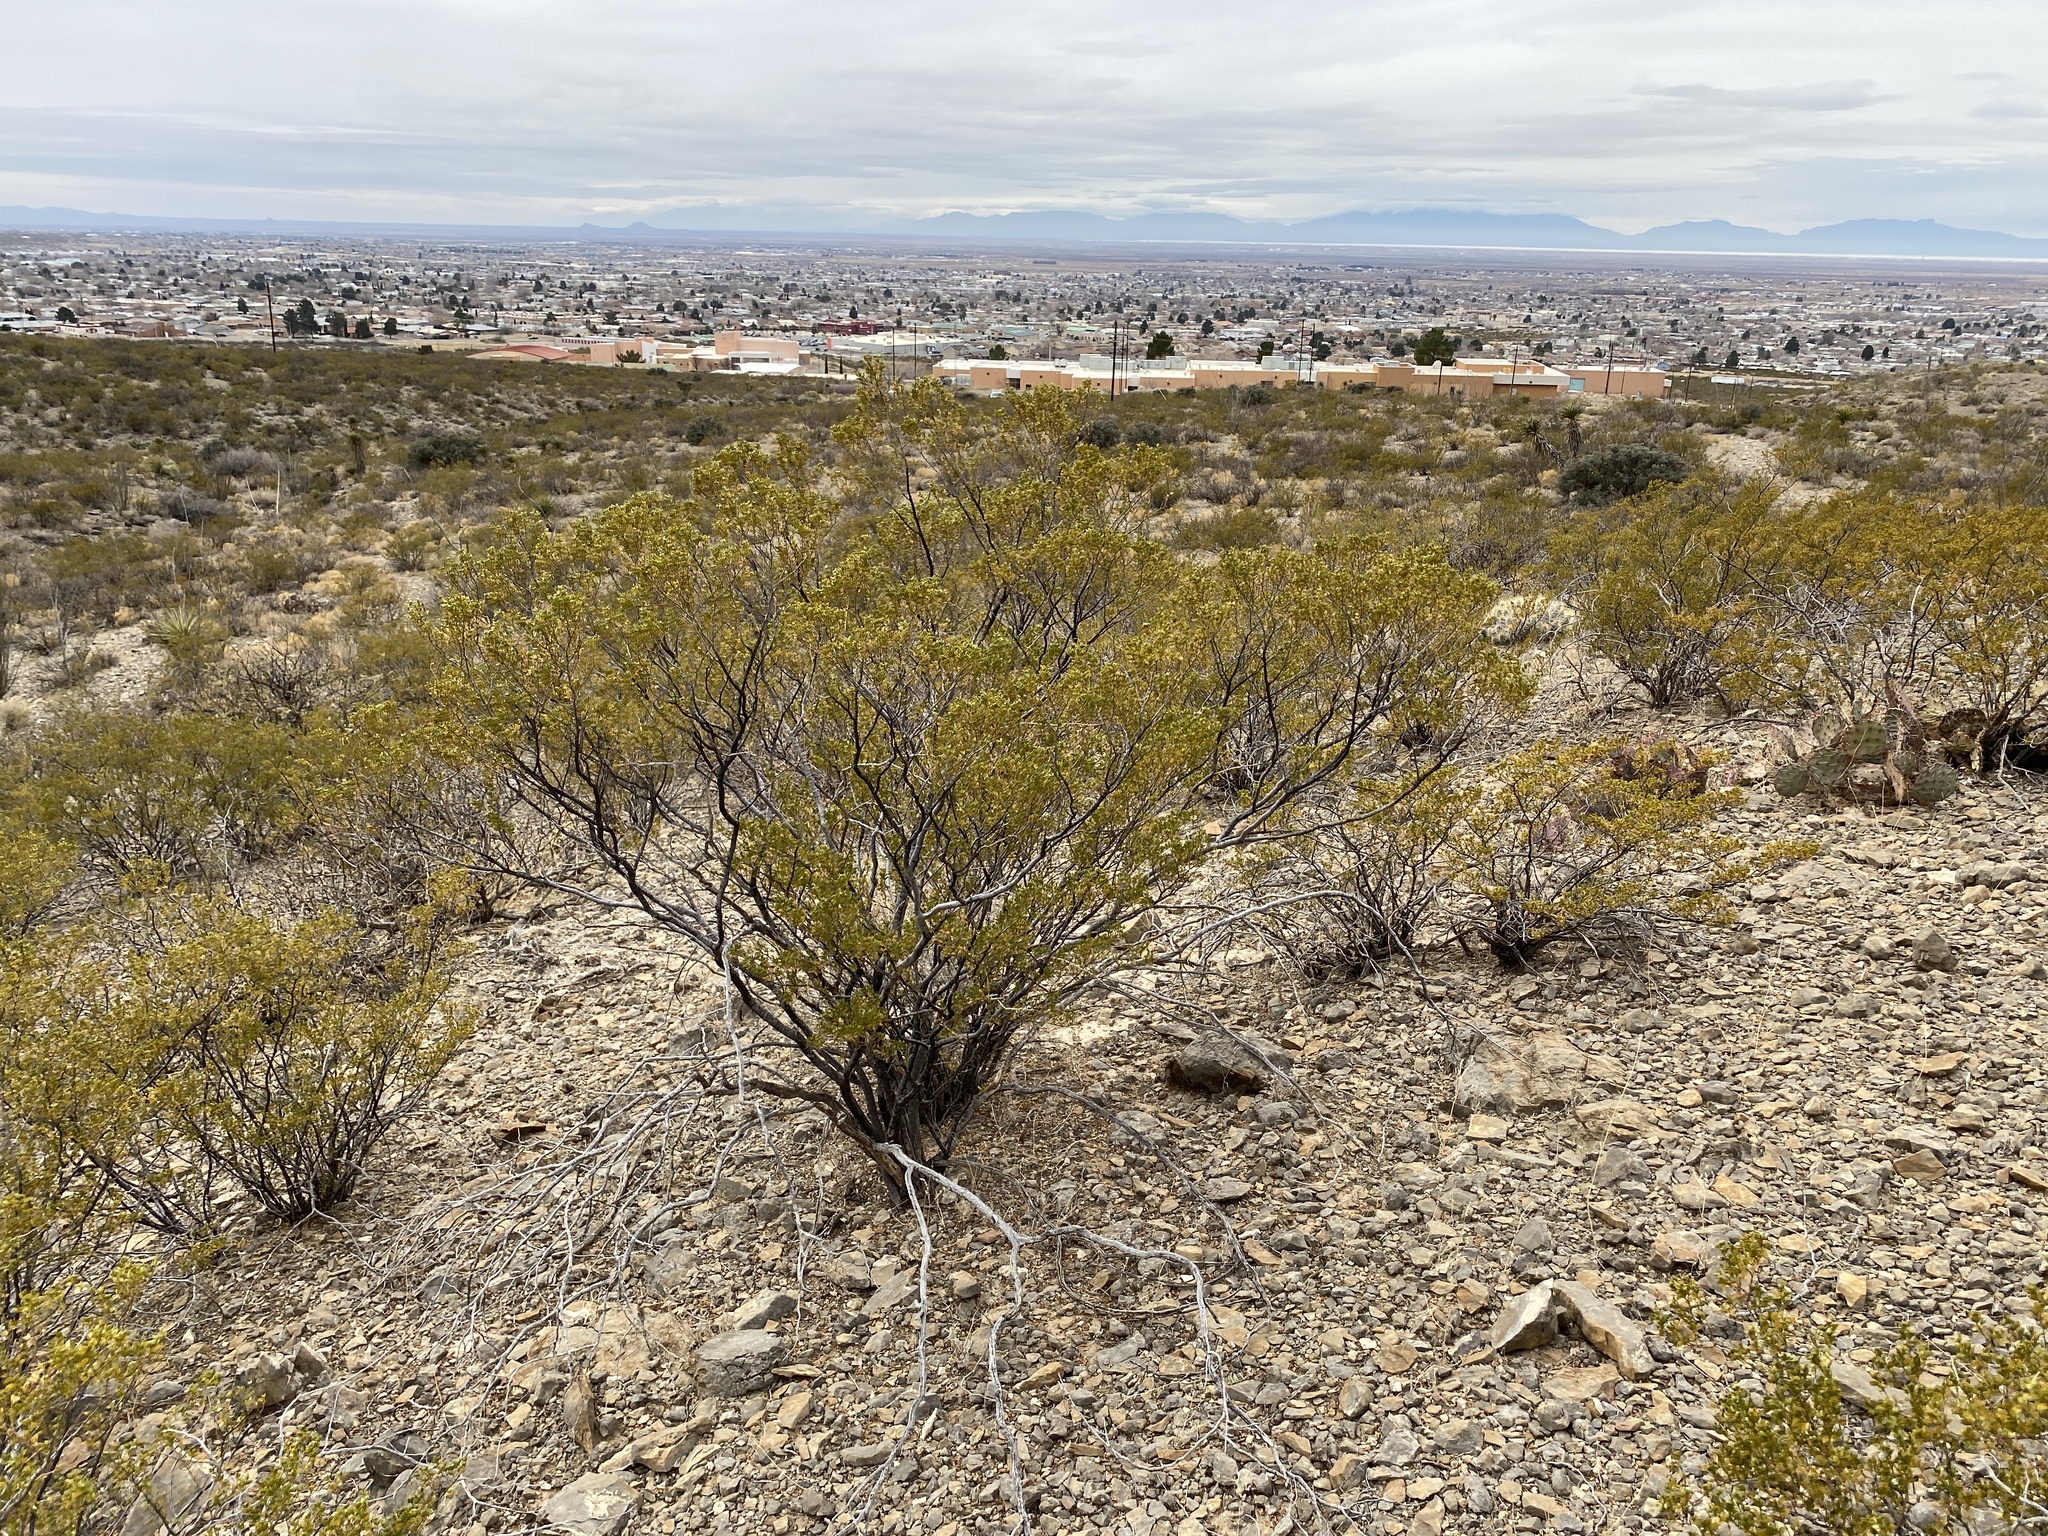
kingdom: Plantae
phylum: Tracheophyta
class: Magnoliopsida
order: Zygophyllales
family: Zygophyllaceae
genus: Larrea
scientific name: Larrea tridentata
